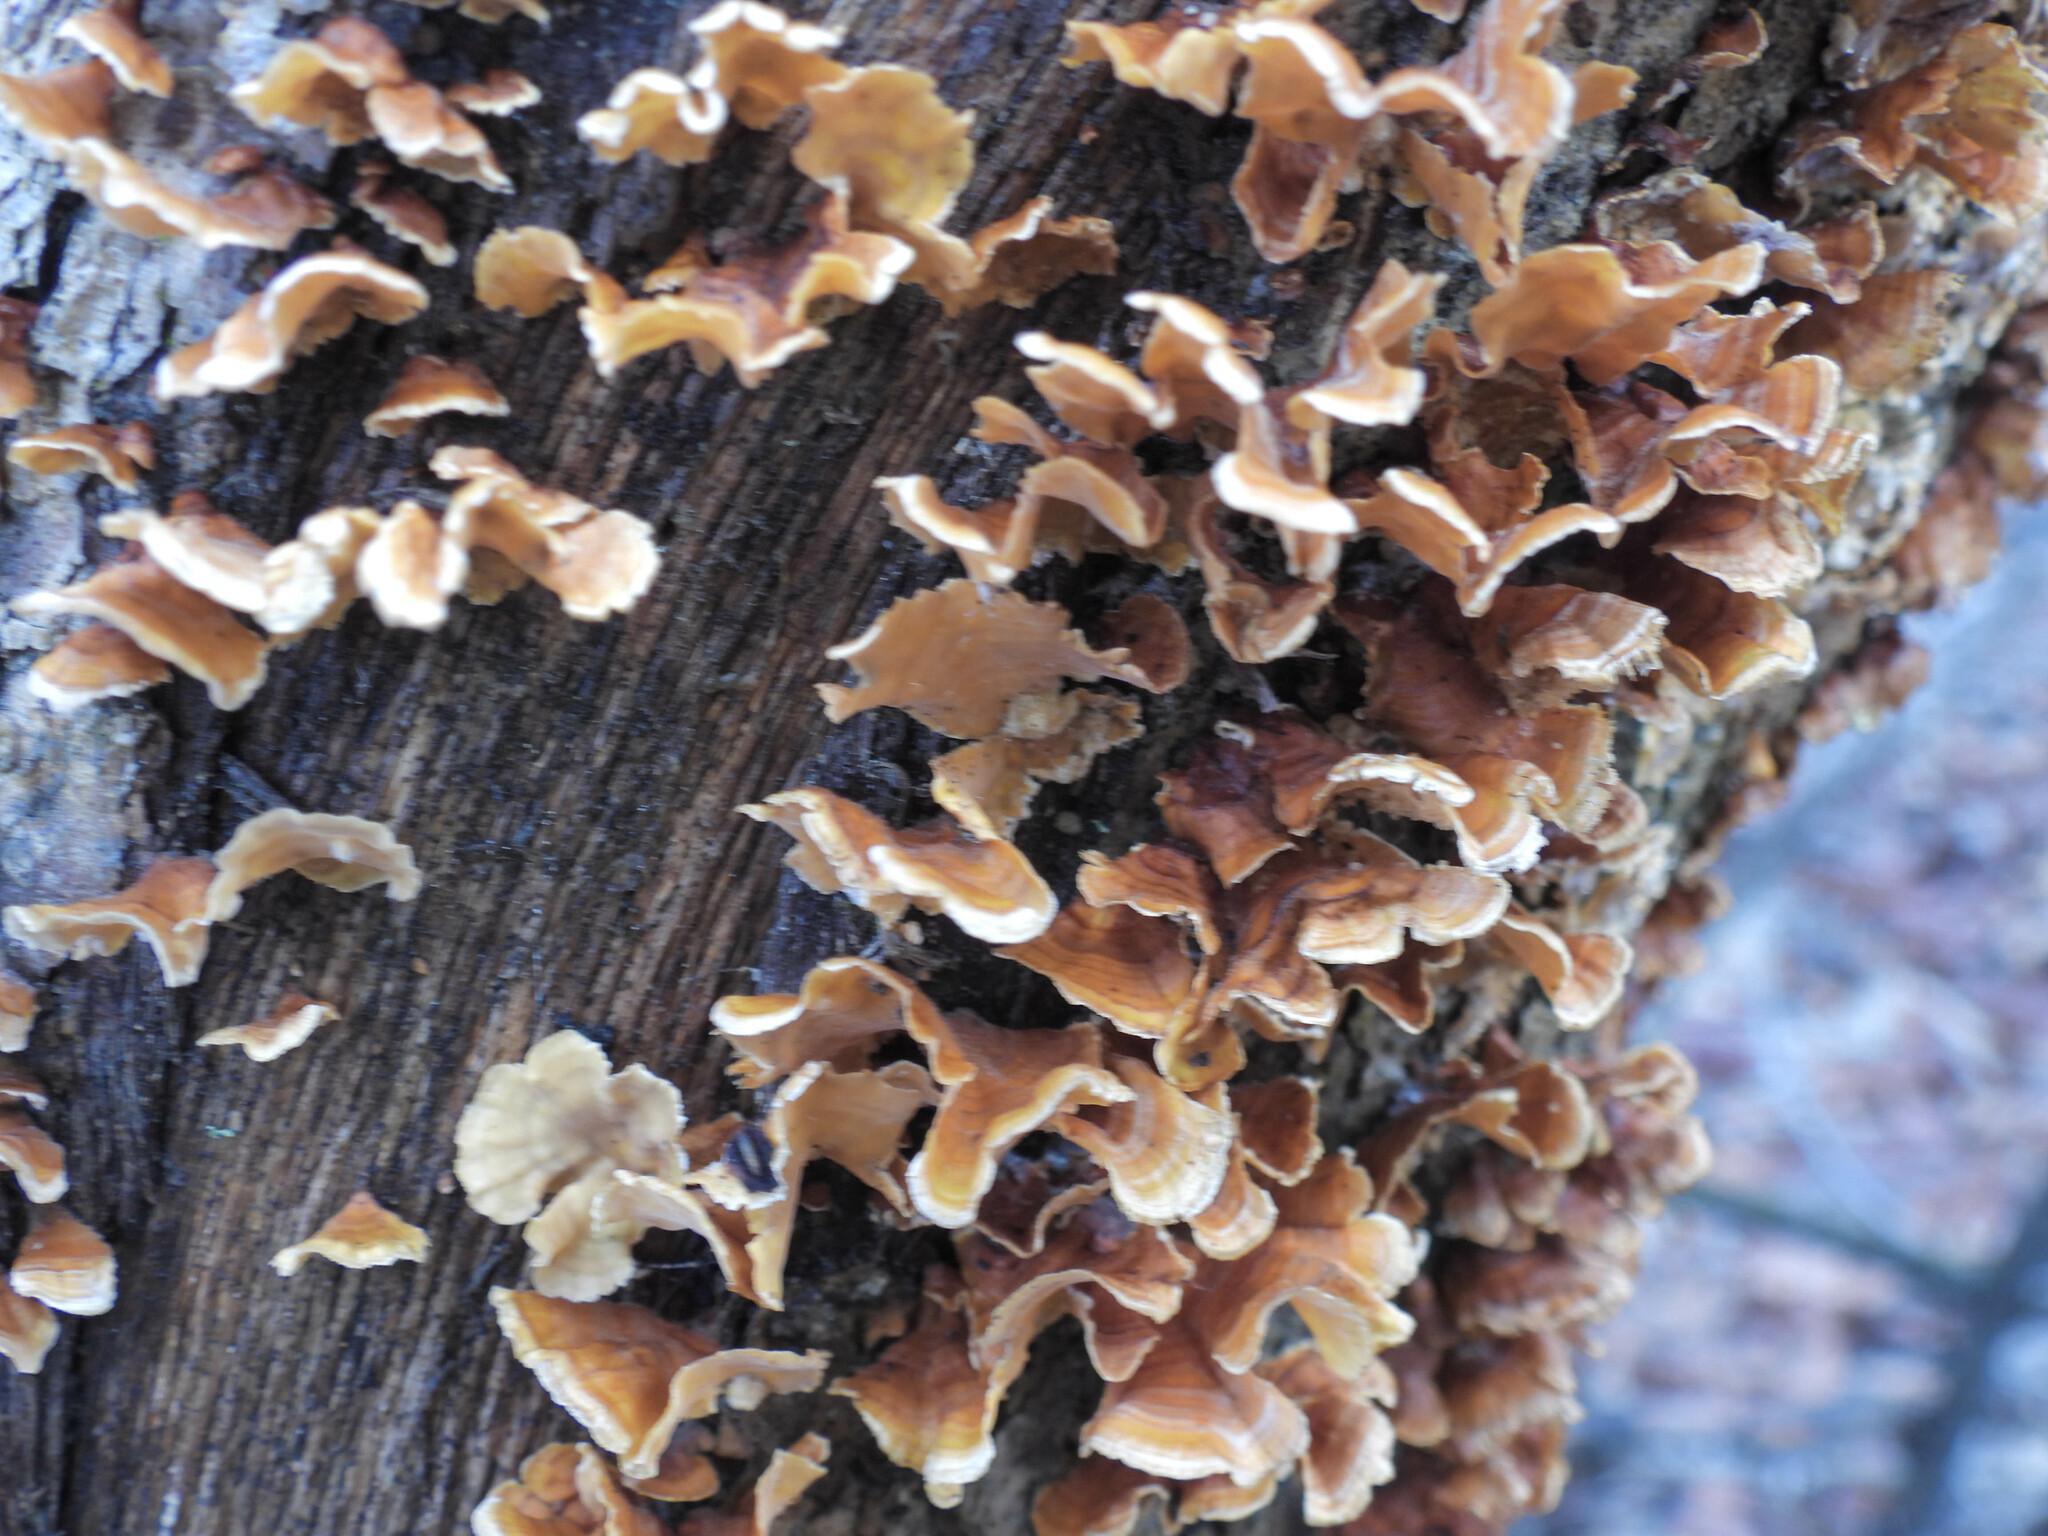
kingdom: Fungi
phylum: Basidiomycota
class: Agaricomycetes
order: Russulales
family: Stereaceae
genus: Stereum
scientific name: Stereum complicatum
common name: Crowded parchment
